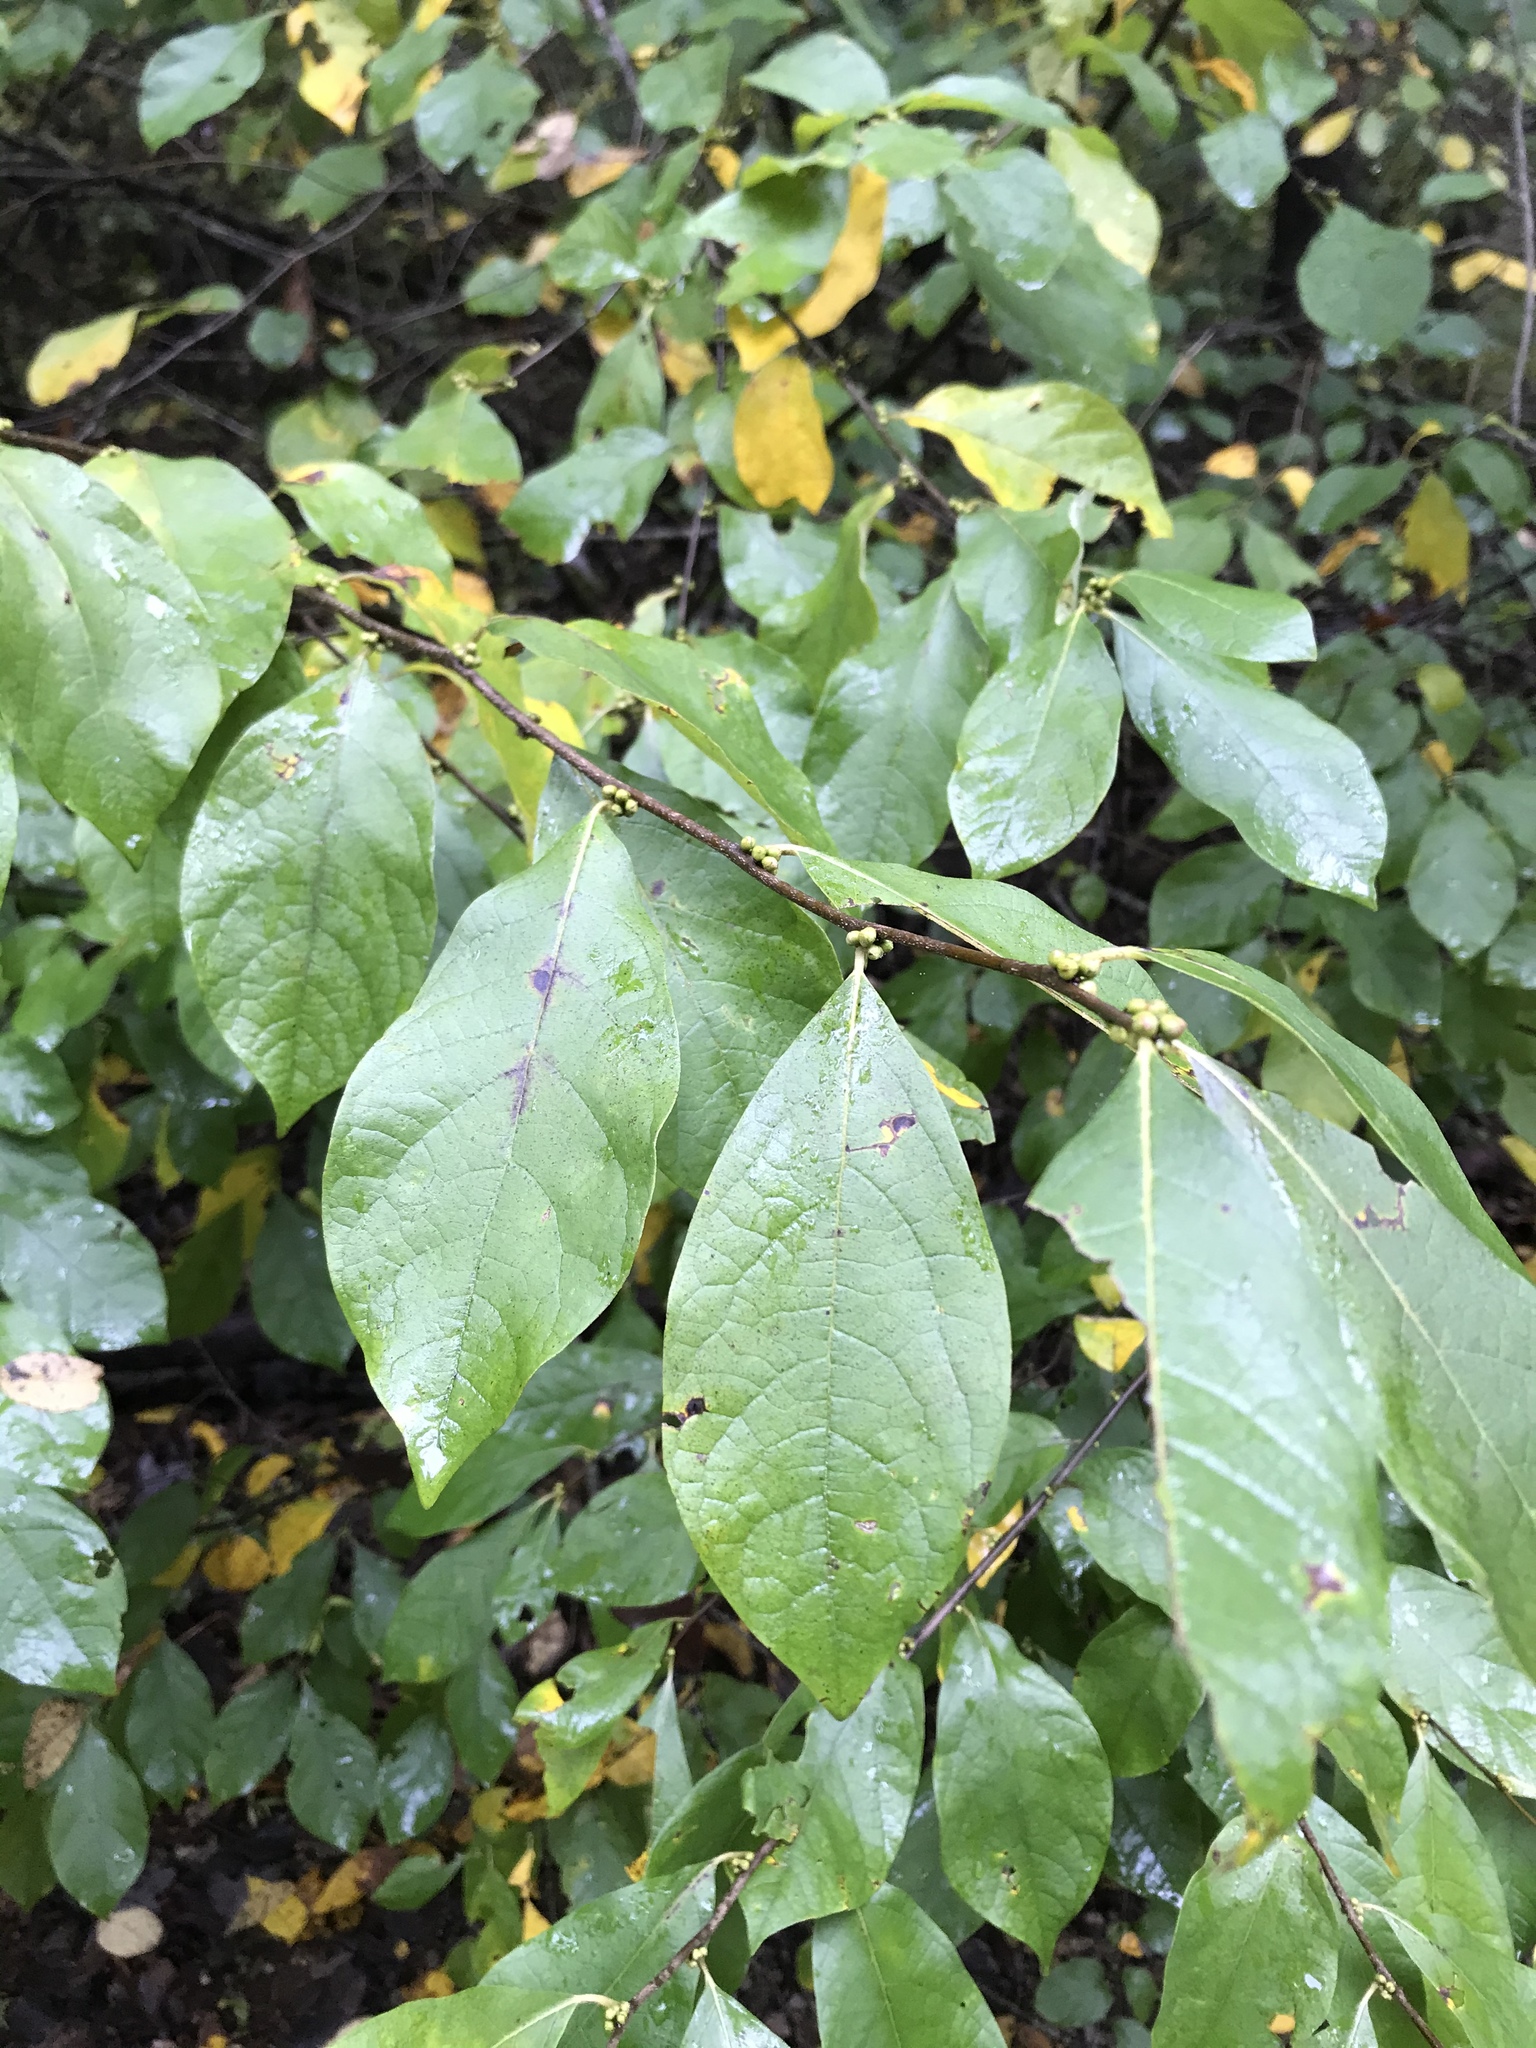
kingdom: Plantae
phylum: Tracheophyta
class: Magnoliopsida
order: Laurales
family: Lauraceae
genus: Lindera
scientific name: Lindera benzoin
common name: Spicebush
